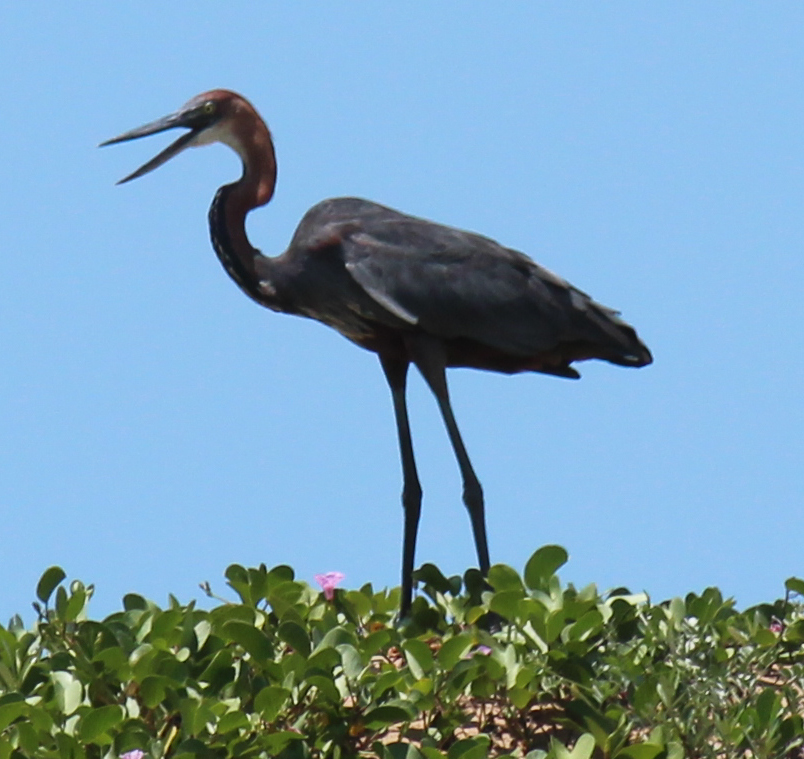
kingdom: Animalia
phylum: Chordata
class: Aves
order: Pelecaniformes
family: Ardeidae
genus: Ardea
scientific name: Ardea goliath
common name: Goliath heron
